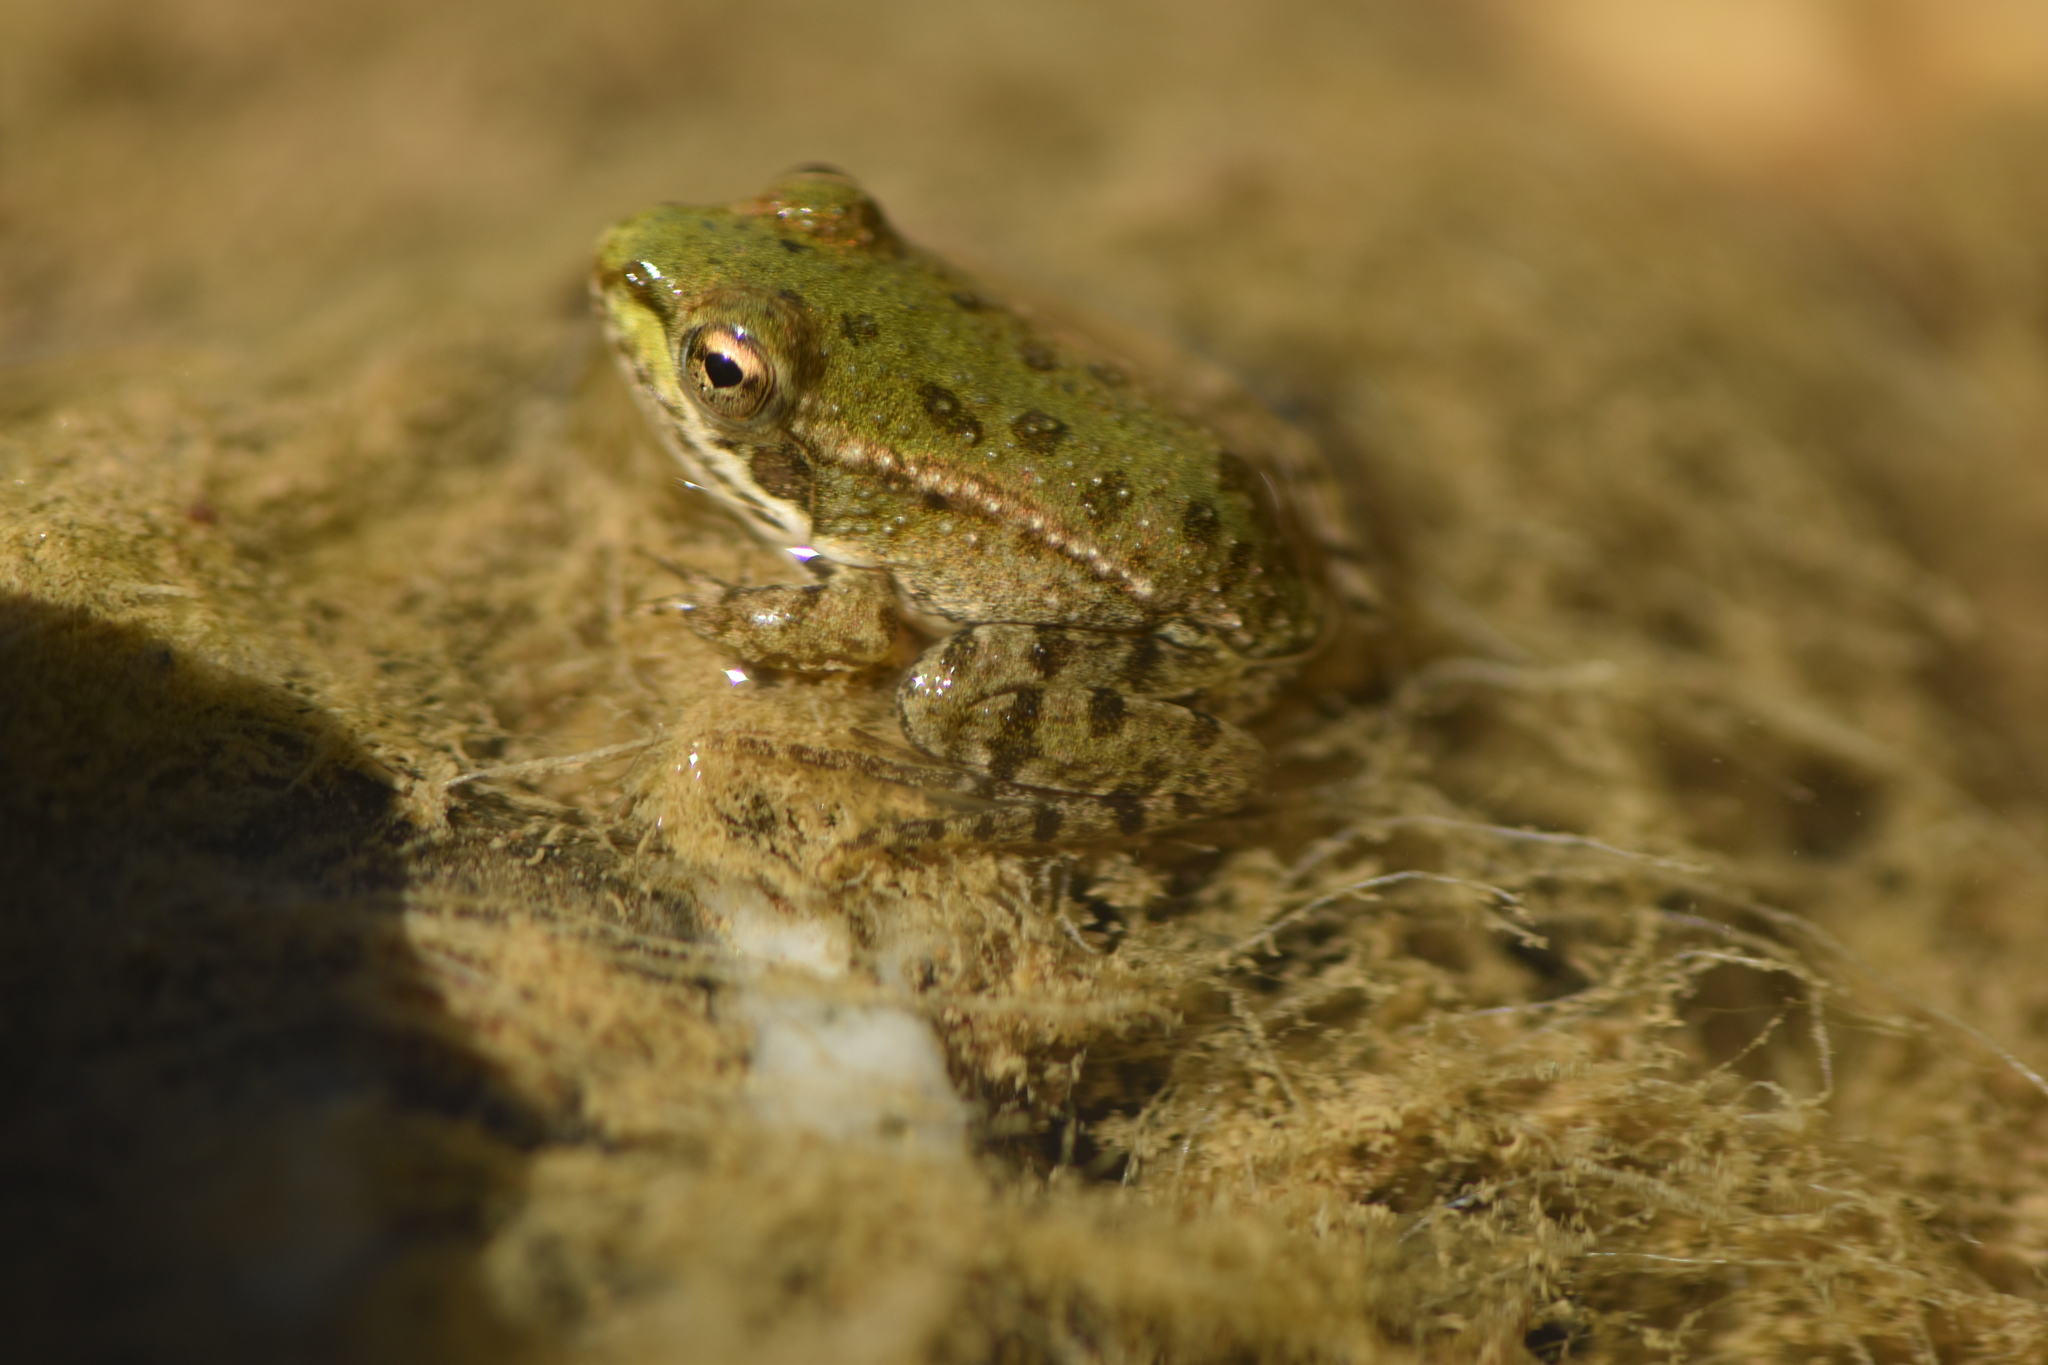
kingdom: Animalia
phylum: Chordata
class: Amphibia
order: Anura
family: Ranidae
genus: Pelophylax
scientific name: Pelophylax perezi
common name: Perez's frog
